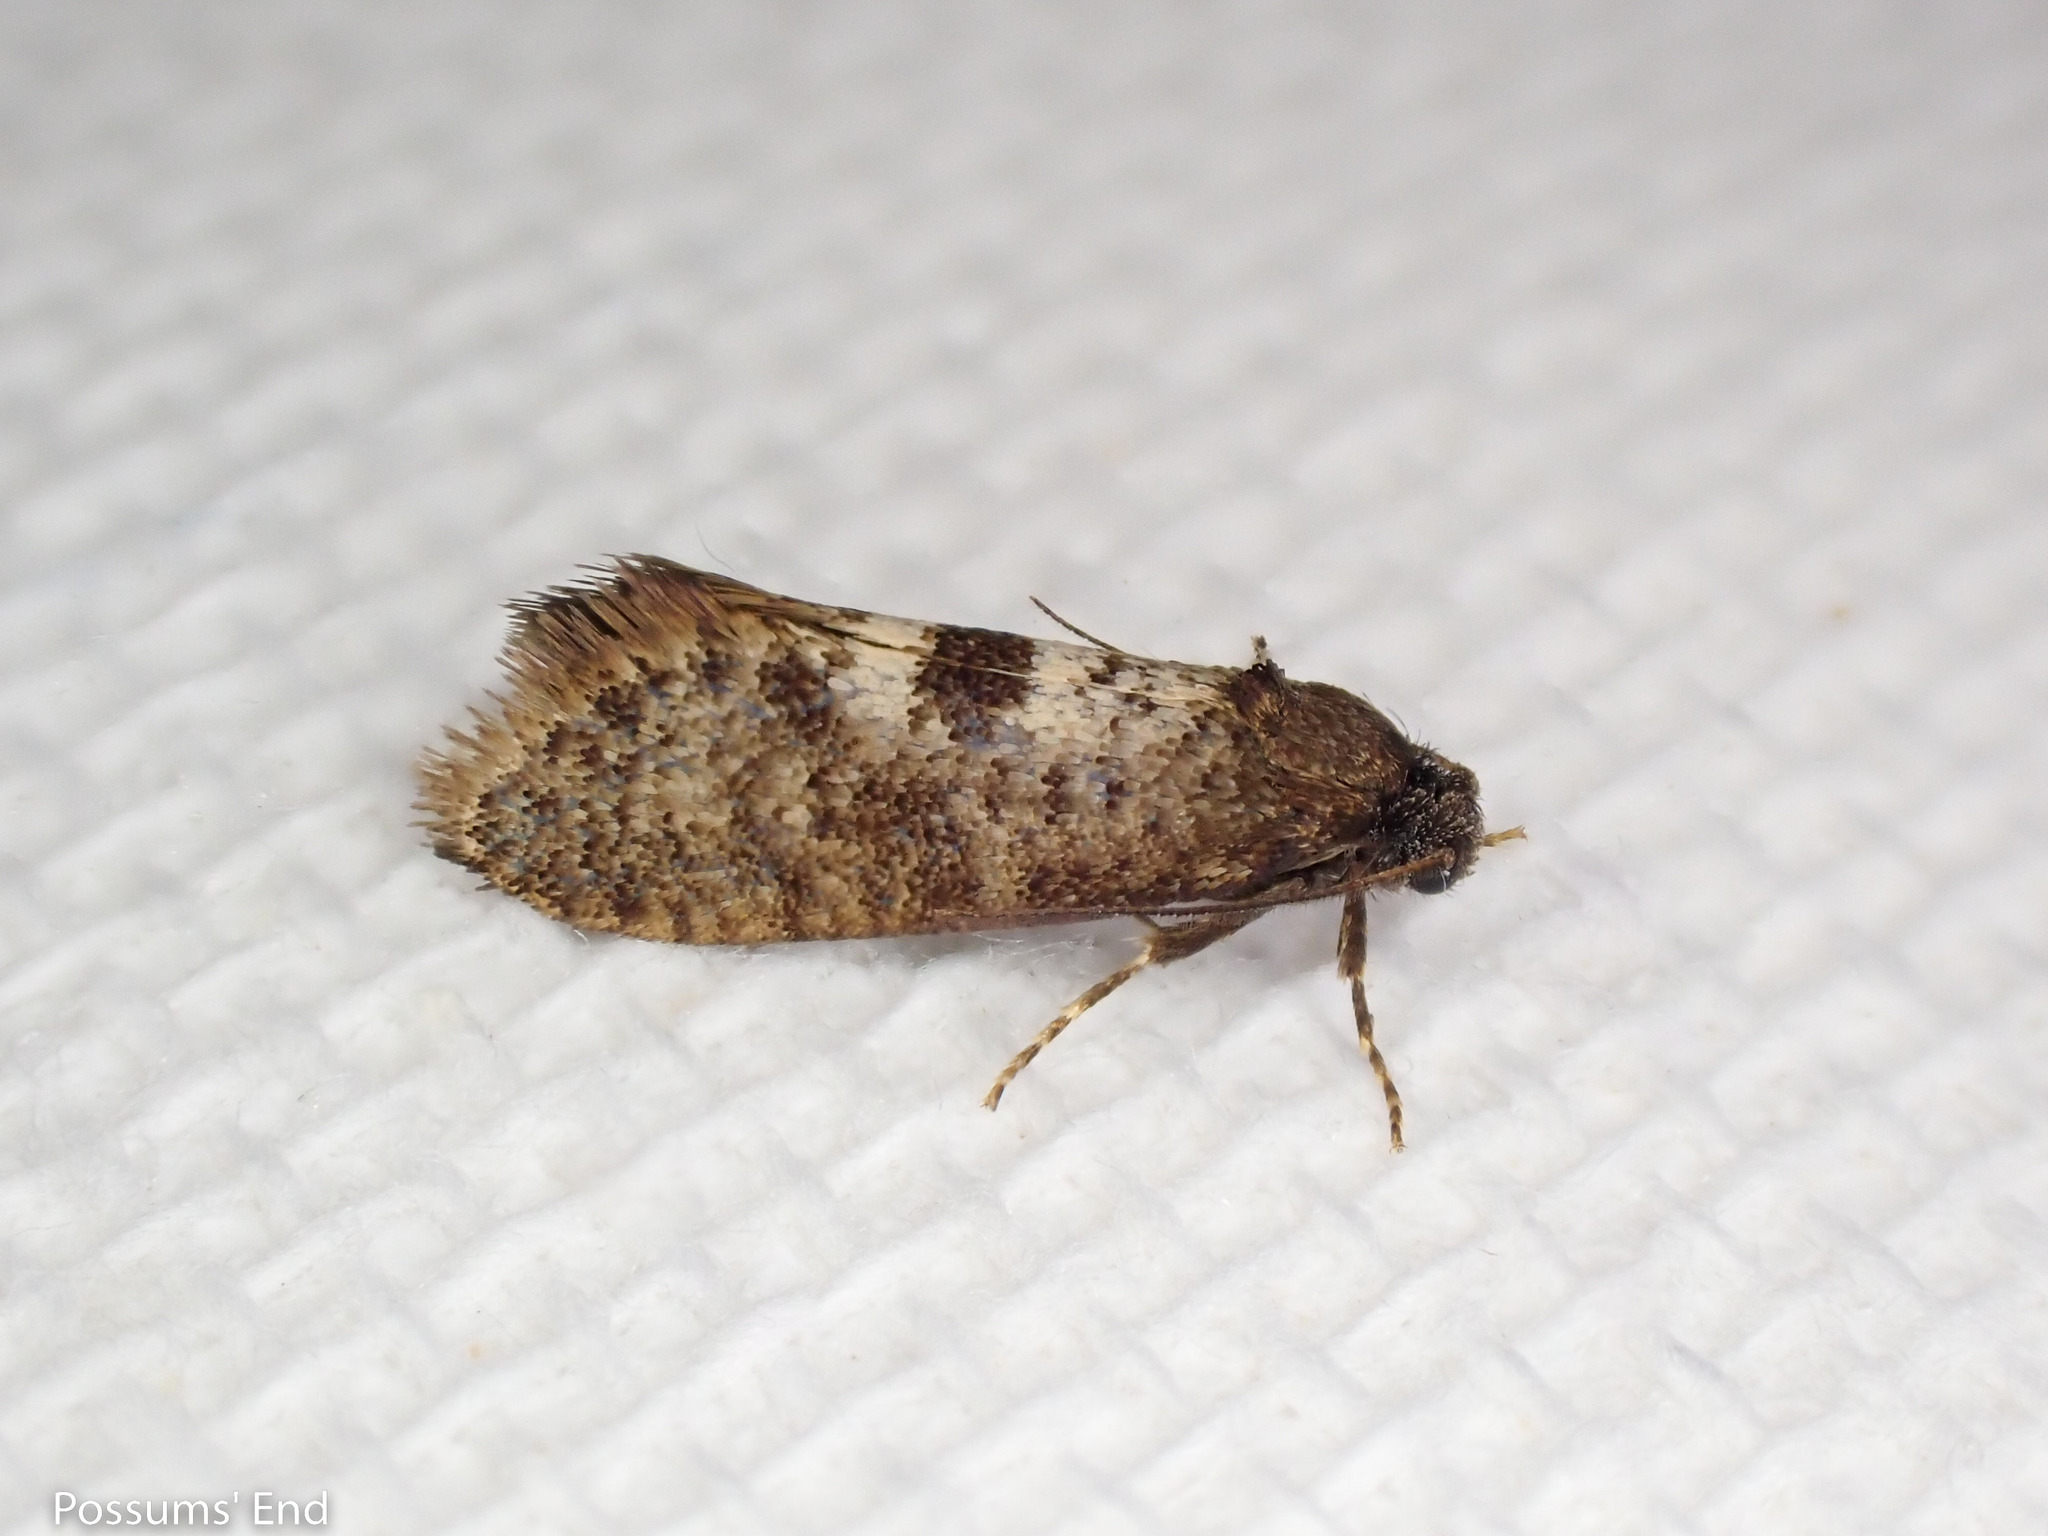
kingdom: Animalia
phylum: Arthropoda
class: Insecta
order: Lepidoptera
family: Psychidae
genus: Mallobathra
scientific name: Mallobathra perisseuta
